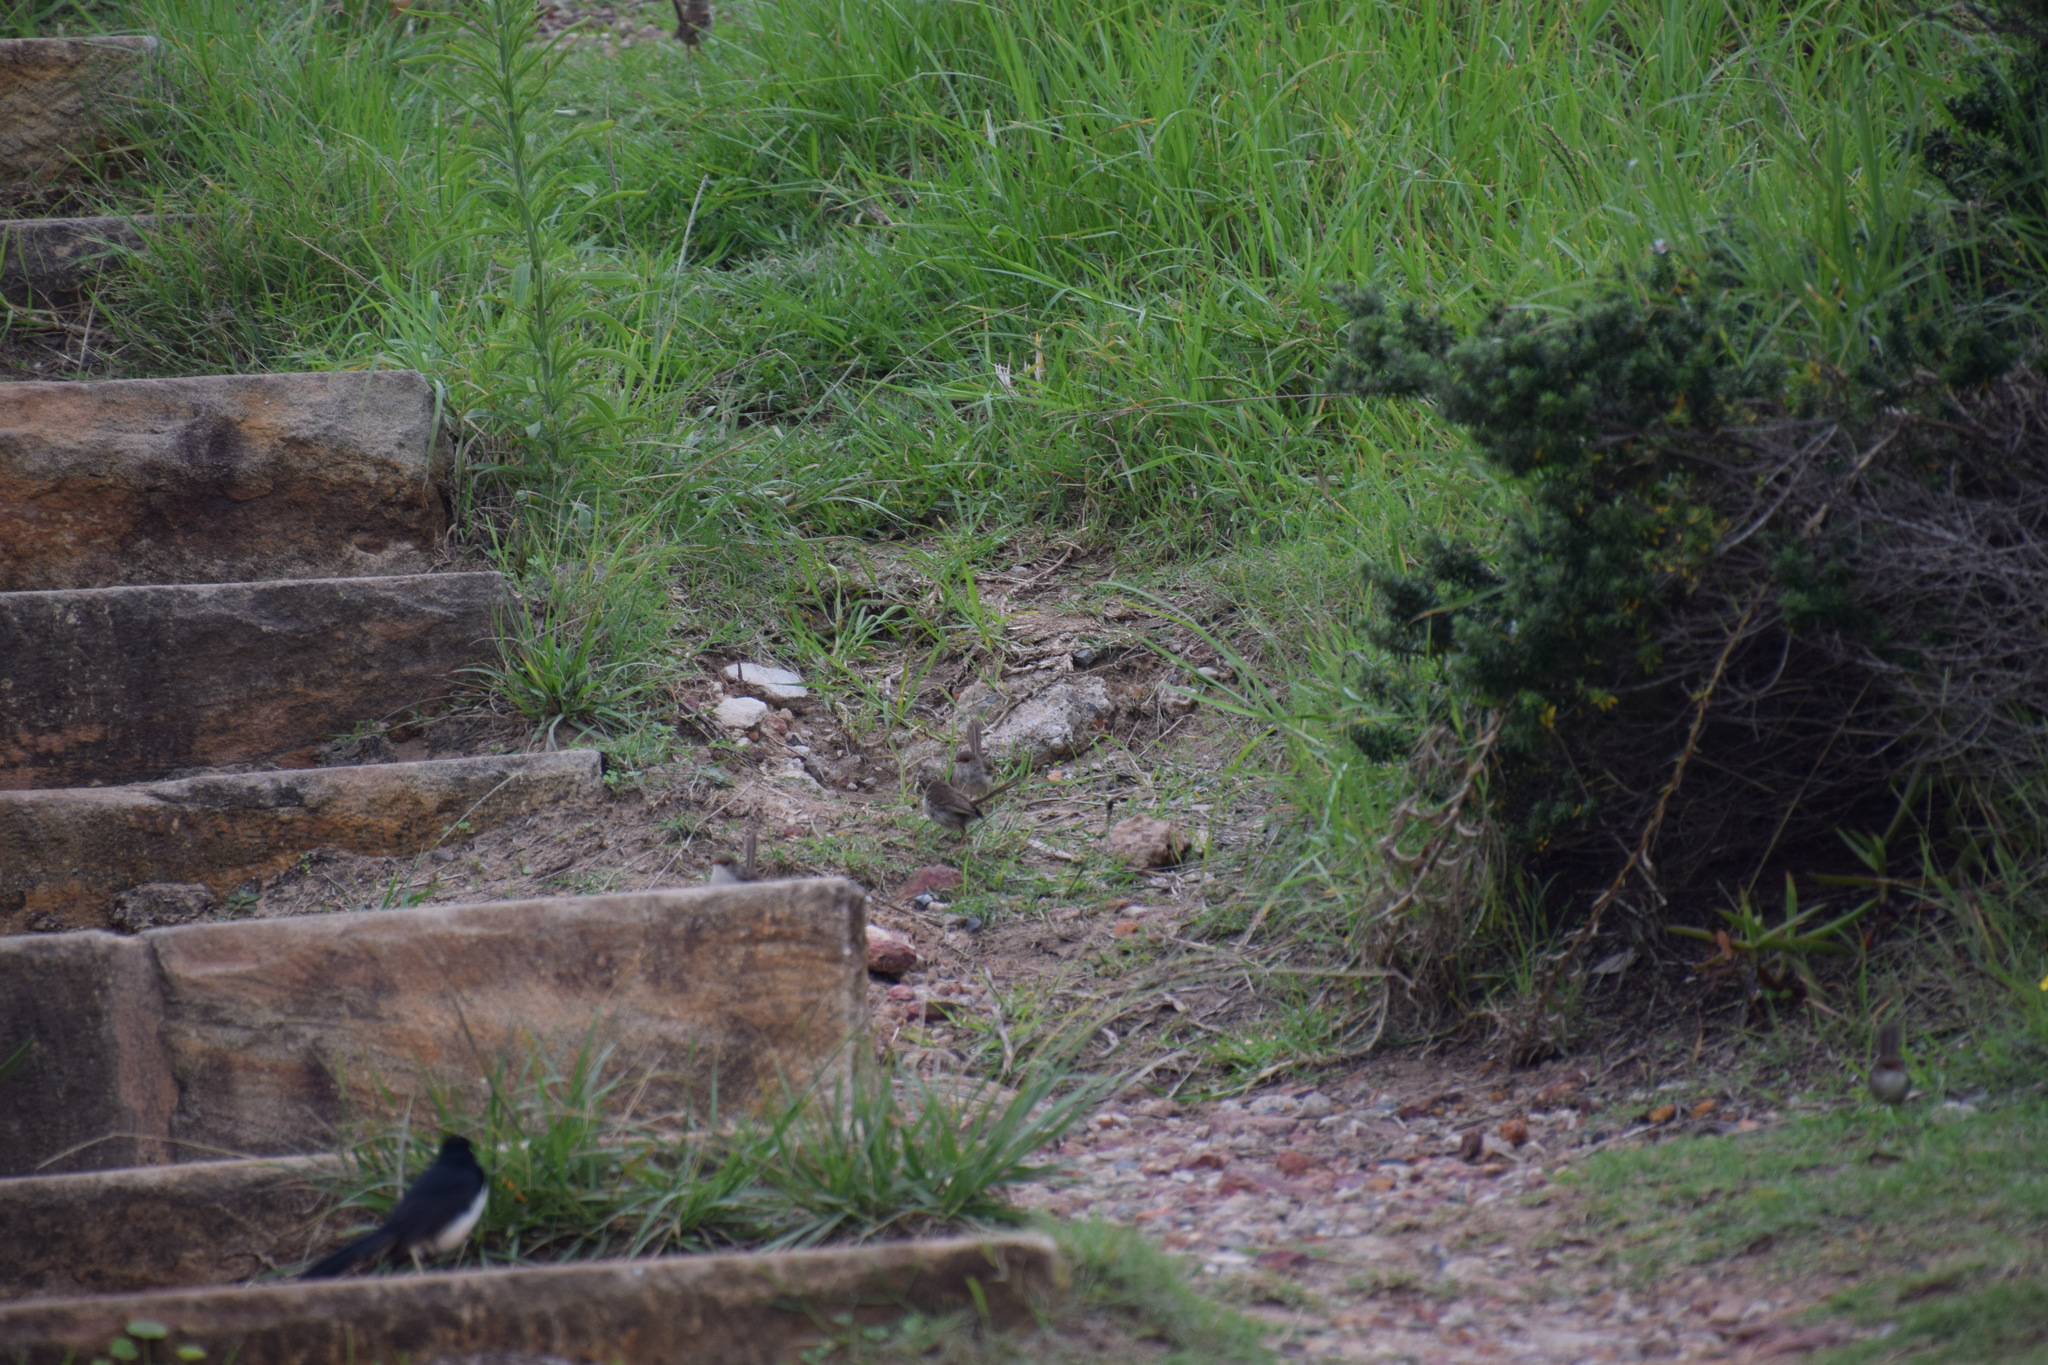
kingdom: Animalia
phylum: Chordata
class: Aves
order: Passeriformes
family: Rhipiduridae
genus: Rhipidura
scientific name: Rhipidura leucophrys
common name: Willie wagtail
